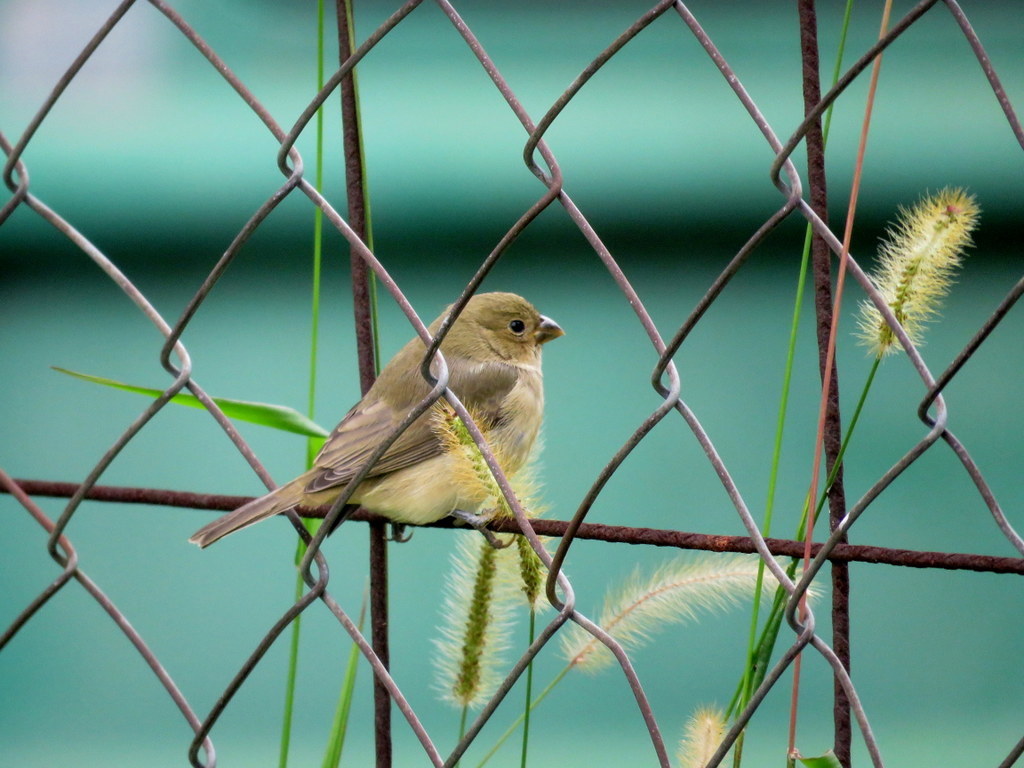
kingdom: Animalia
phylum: Chordata
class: Aves
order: Passeriformes
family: Thraupidae
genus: Sporophila
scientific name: Sporophila caerulescens
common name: Double-collared seedeater
